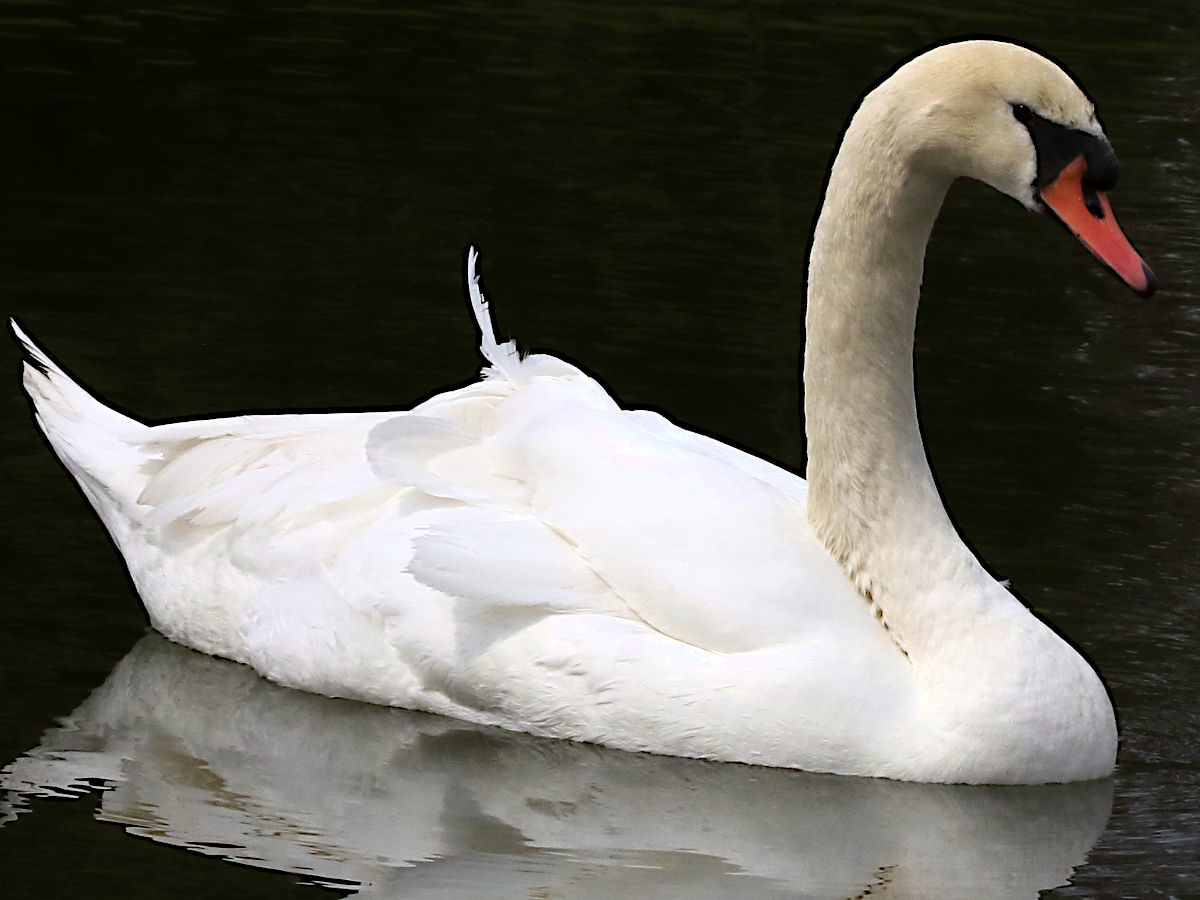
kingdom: Animalia
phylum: Chordata
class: Aves
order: Anseriformes
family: Anatidae
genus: Cygnus
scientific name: Cygnus olor
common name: Mute swan
